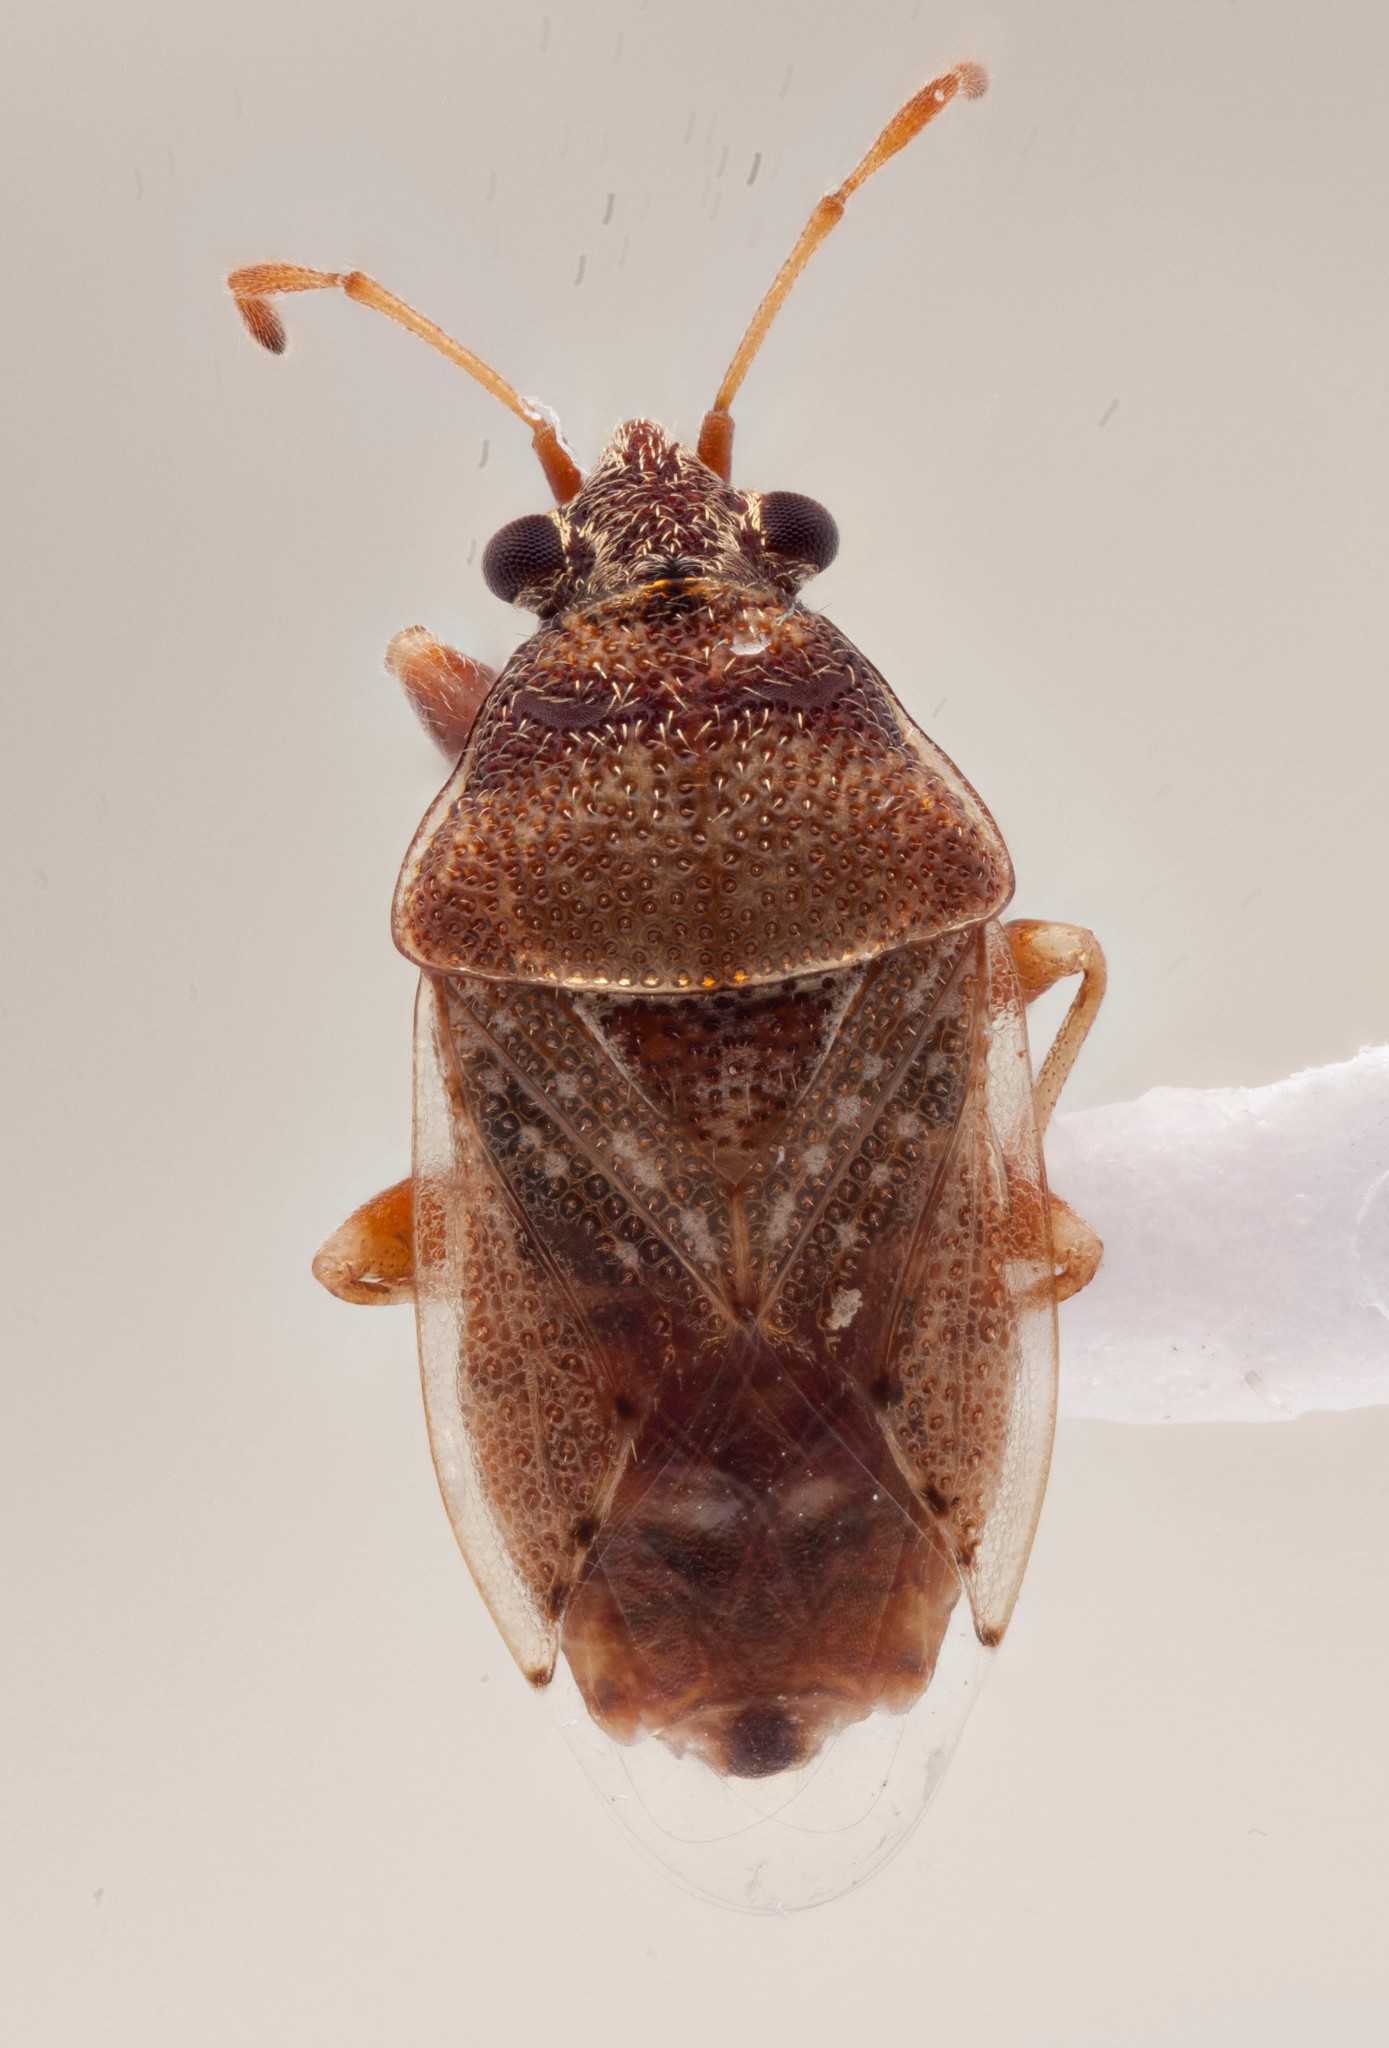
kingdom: Animalia
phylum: Arthropoda
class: Insecta
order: Hemiptera
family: Lygaeidae
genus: Crompus
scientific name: Crompus oculatus
